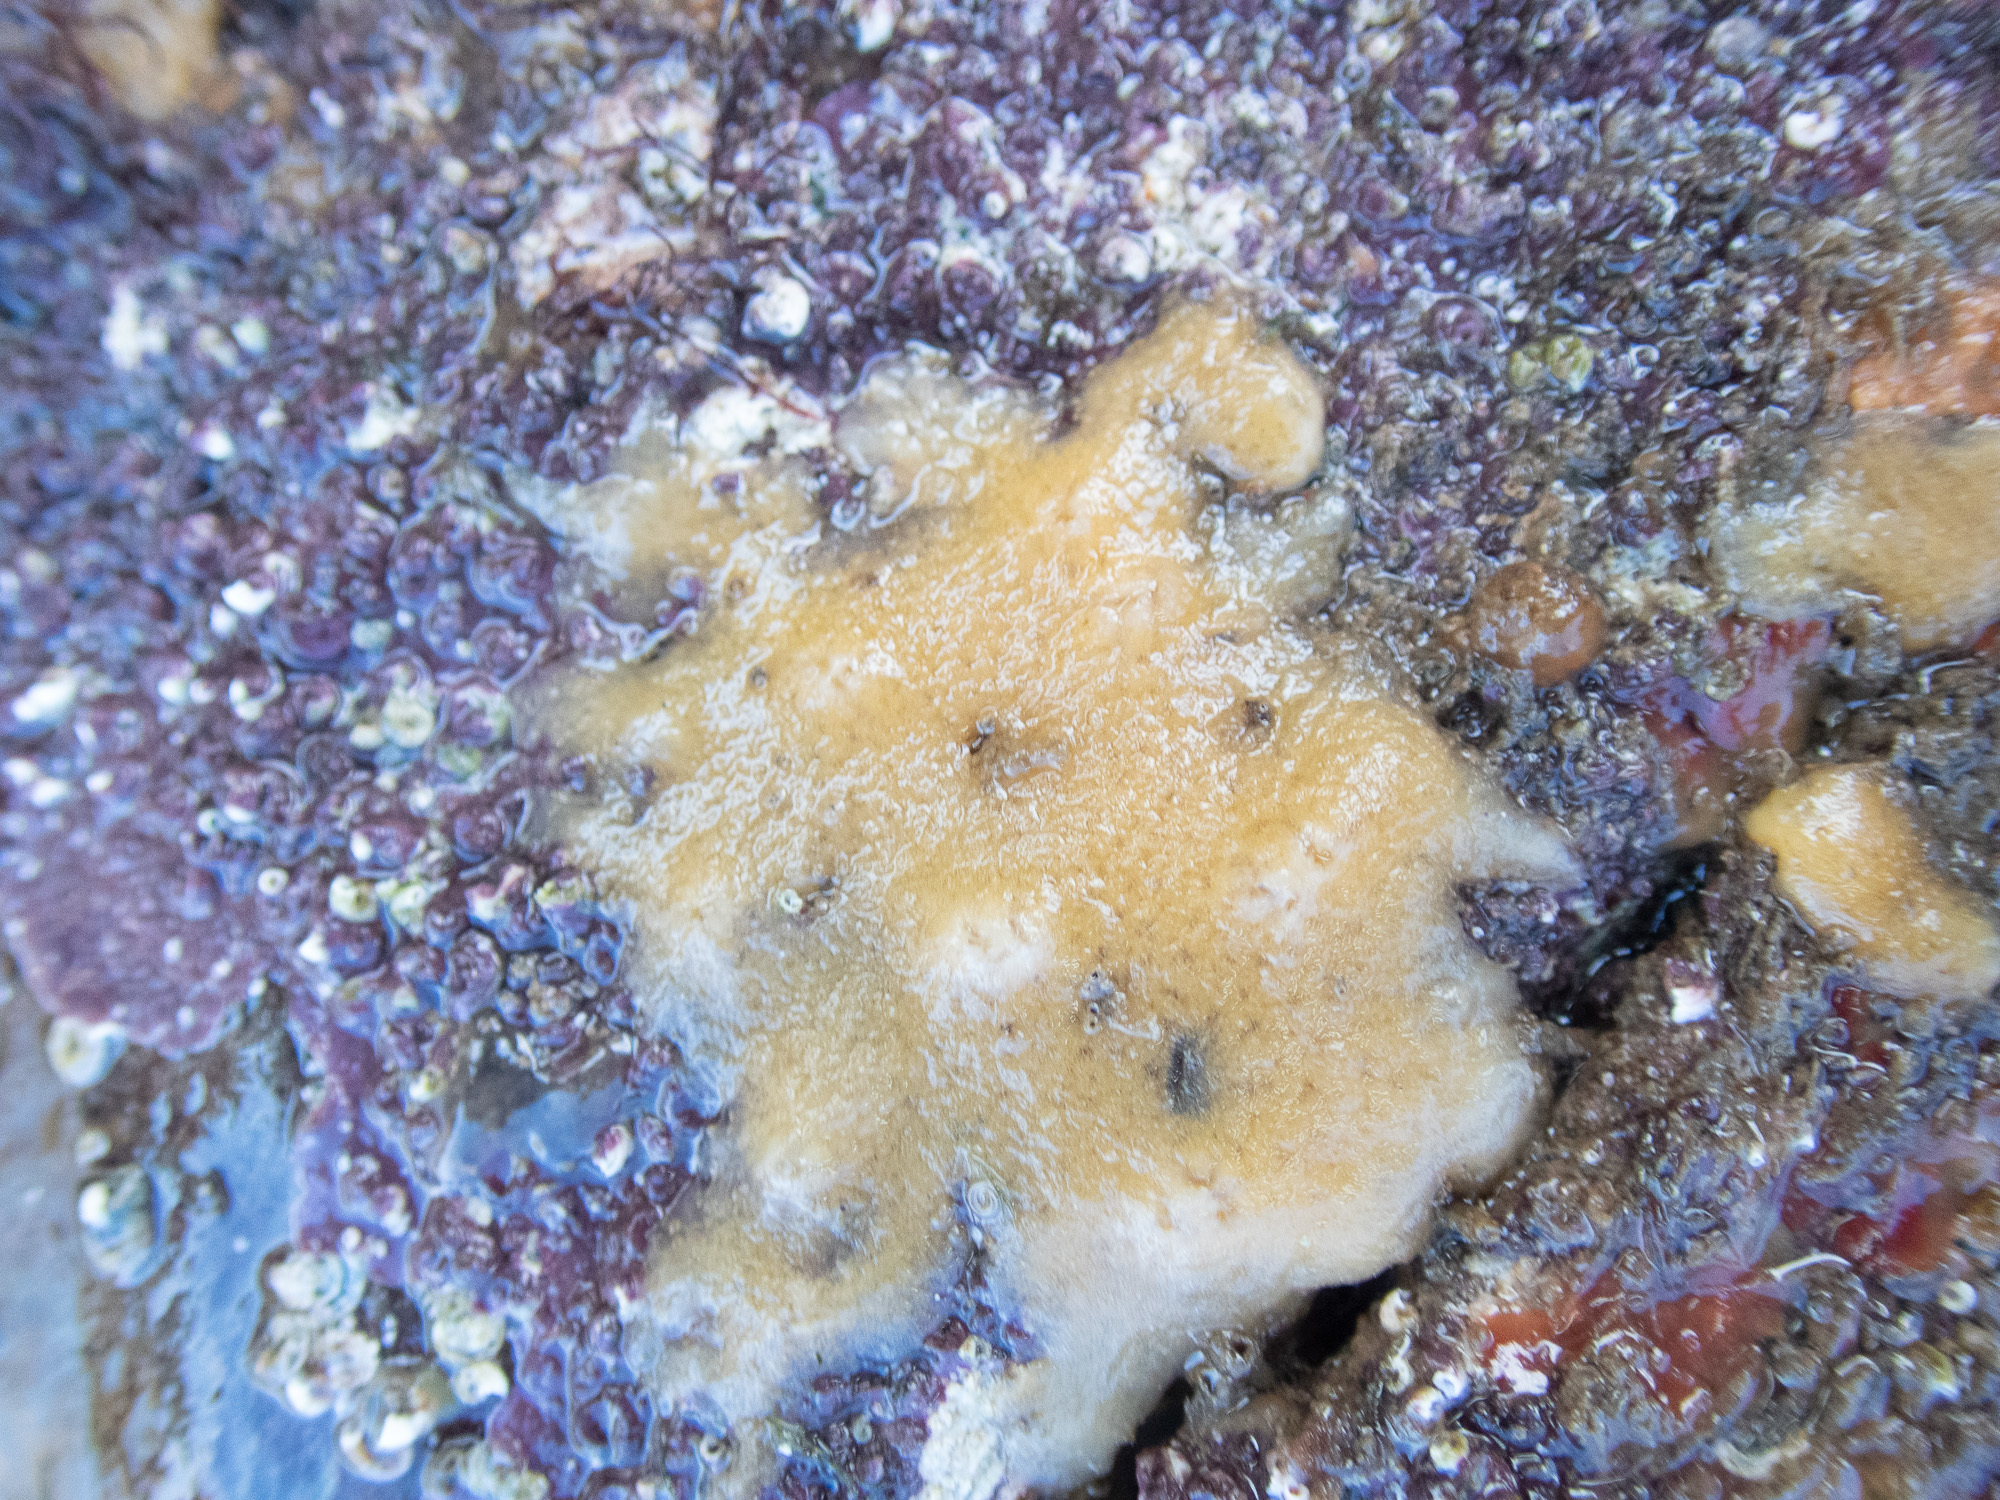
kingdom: Animalia
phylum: Porifera
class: Demospongiae
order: Suberitida
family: Halichondriidae
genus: Halichondria
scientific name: Halichondria panicea
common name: Breadcrumb sponge
